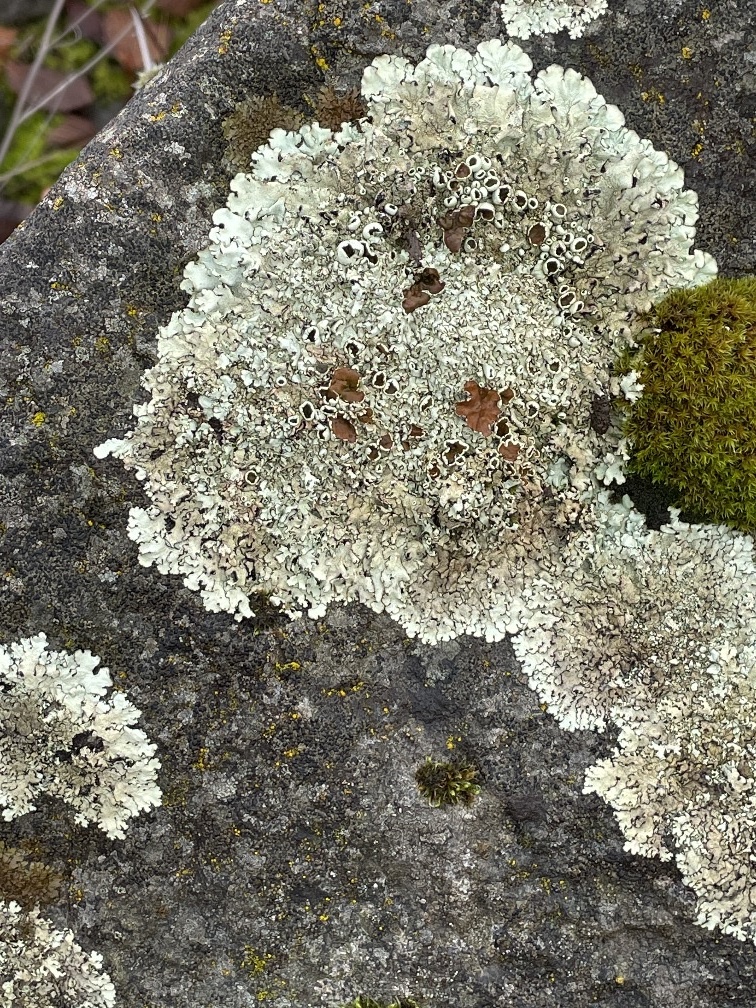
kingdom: Fungi
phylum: Ascomycota
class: Lecanoromycetes
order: Lecanorales
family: Parmeliaceae
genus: Xanthoparmelia
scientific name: Xanthoparmelia cumberlandia
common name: Cumberland rock shield
